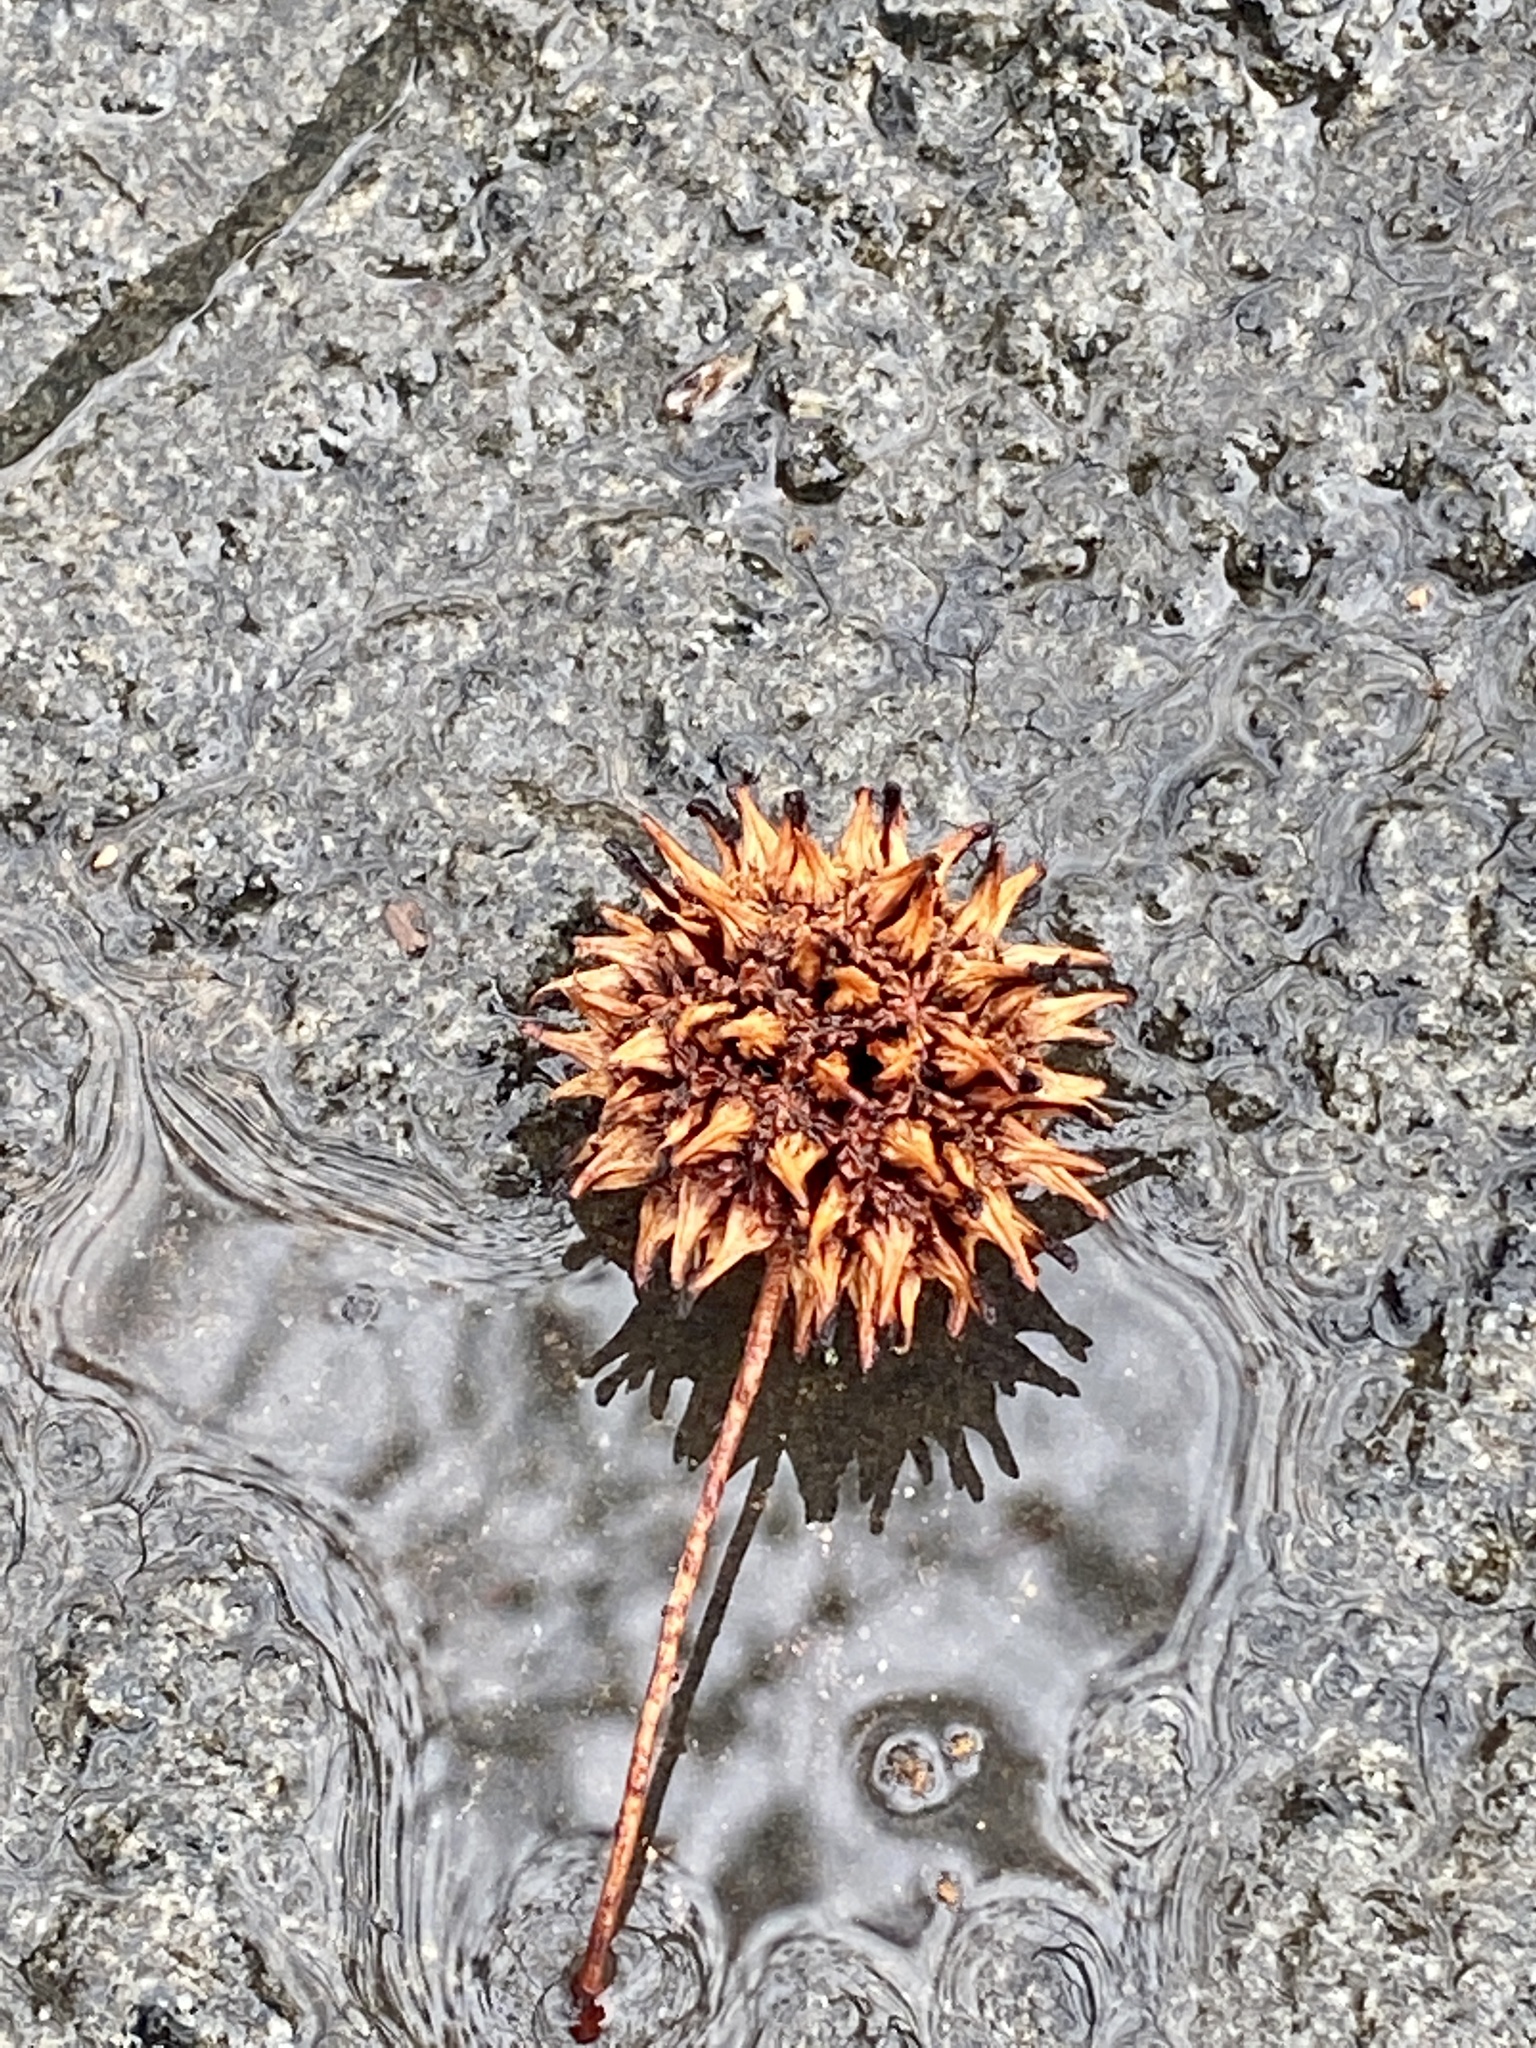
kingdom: Plantae
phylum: Tracheophyta
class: Magnoliopsida
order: Saxifragales
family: Altingiaceae
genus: Liquidambar
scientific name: Liquidambar styraciflua
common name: Sweet gum
